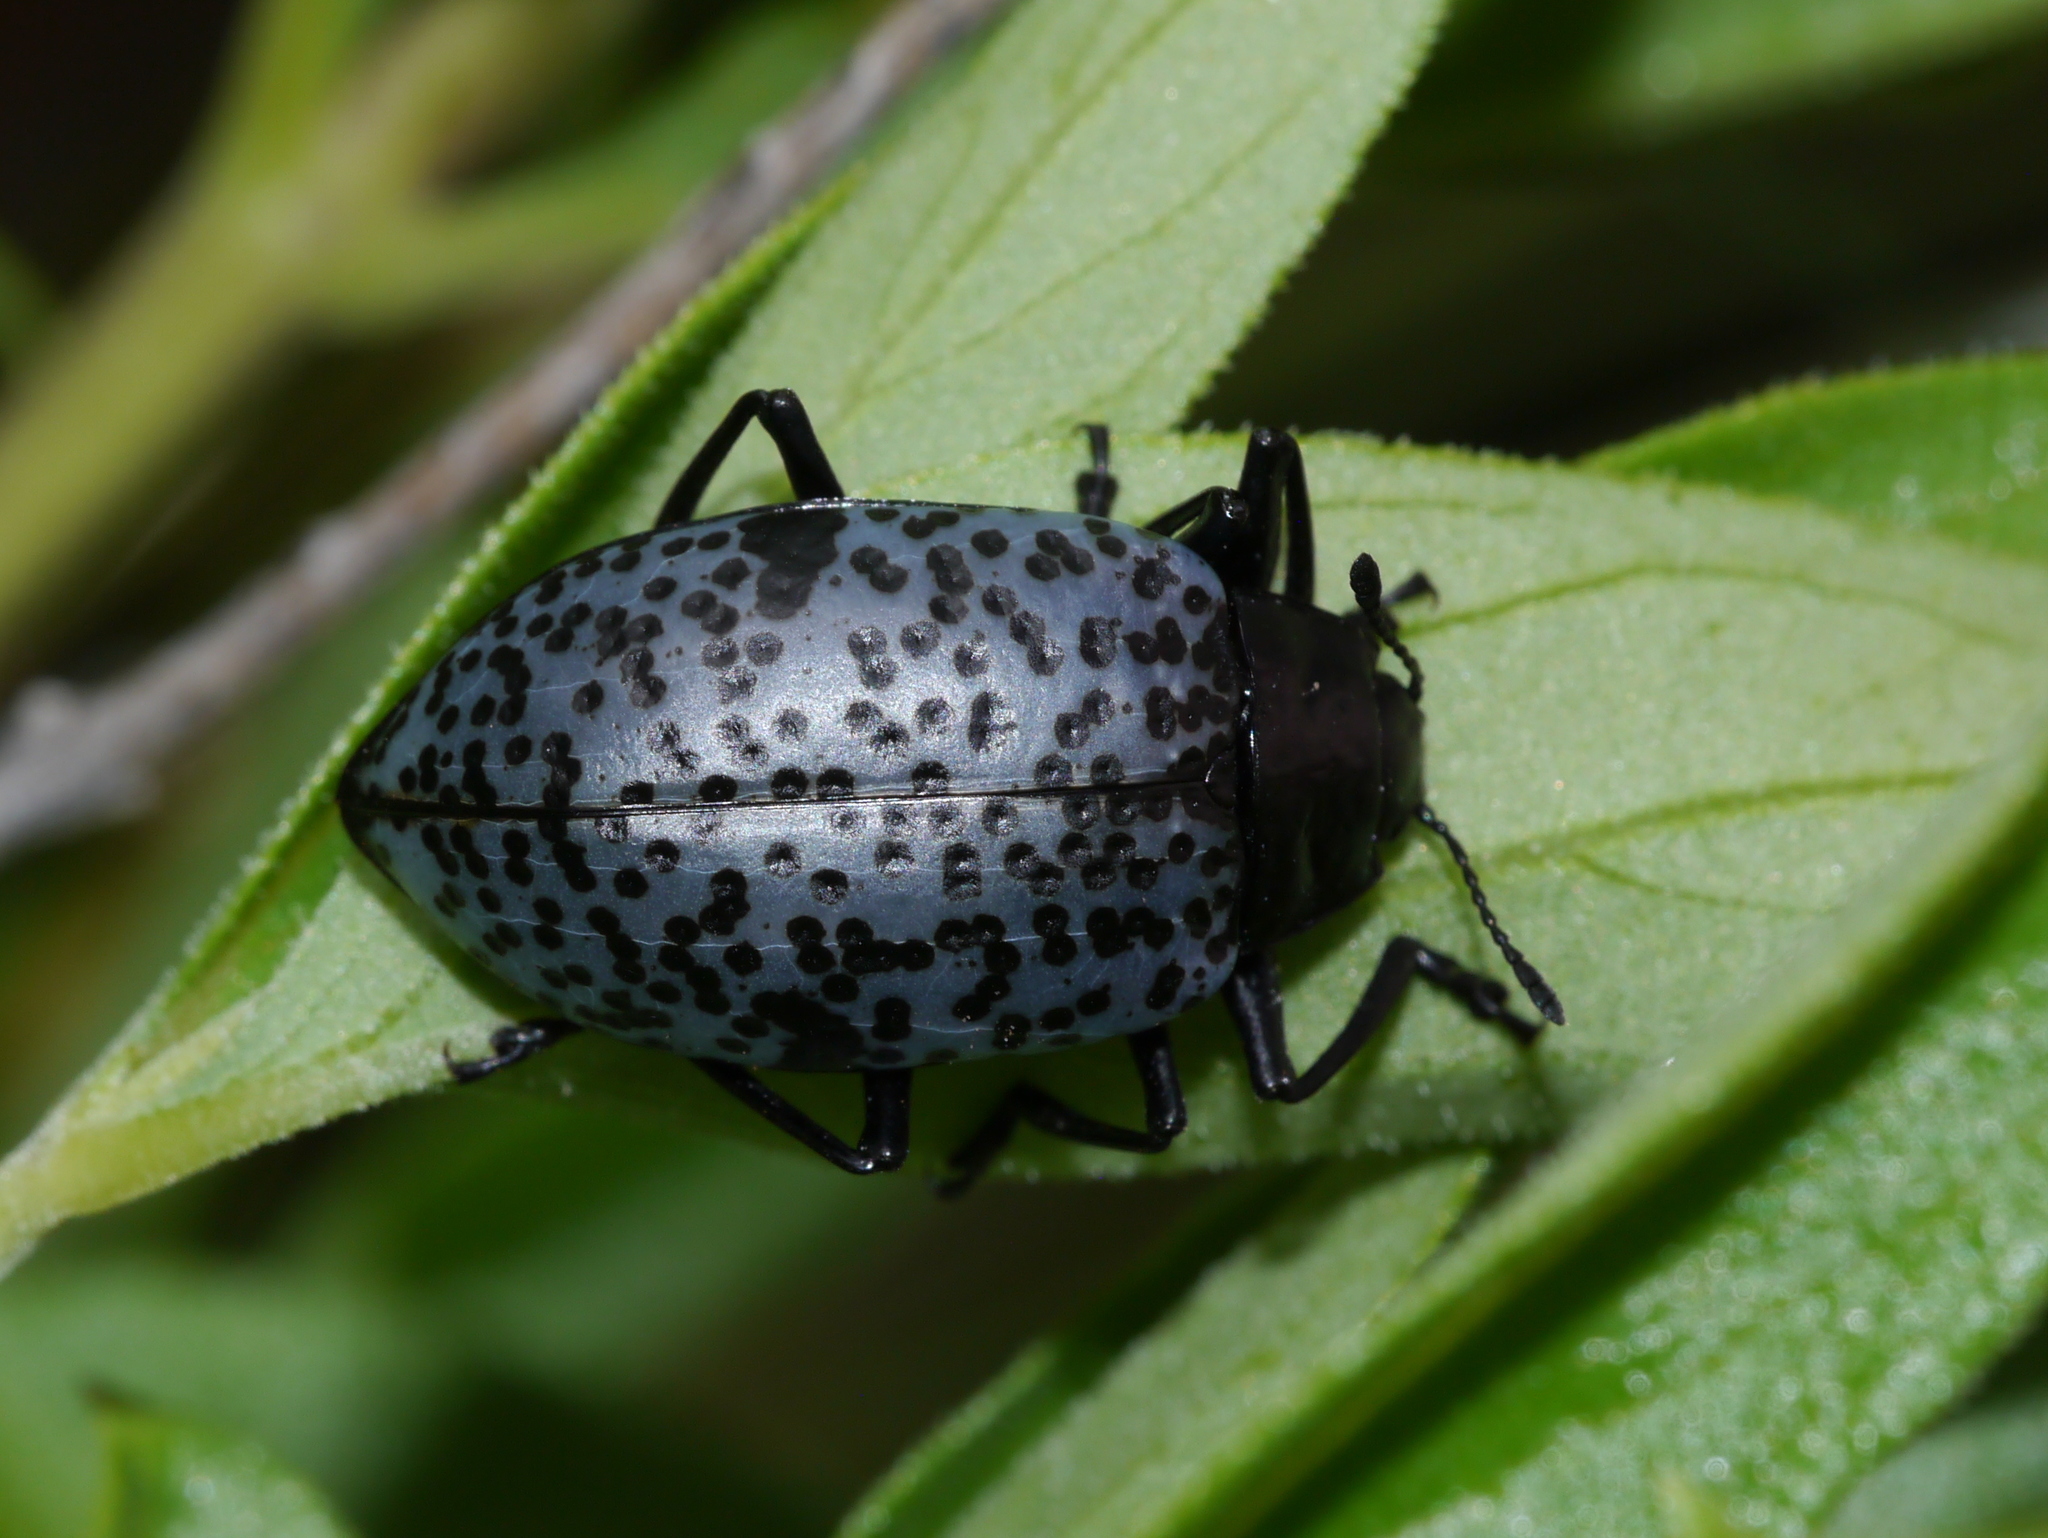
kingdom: Animalia
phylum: Arthropoda
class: Insecta
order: Coleoptera
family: Erotylidae
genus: Gibbifer
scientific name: Gibbifer californicus
